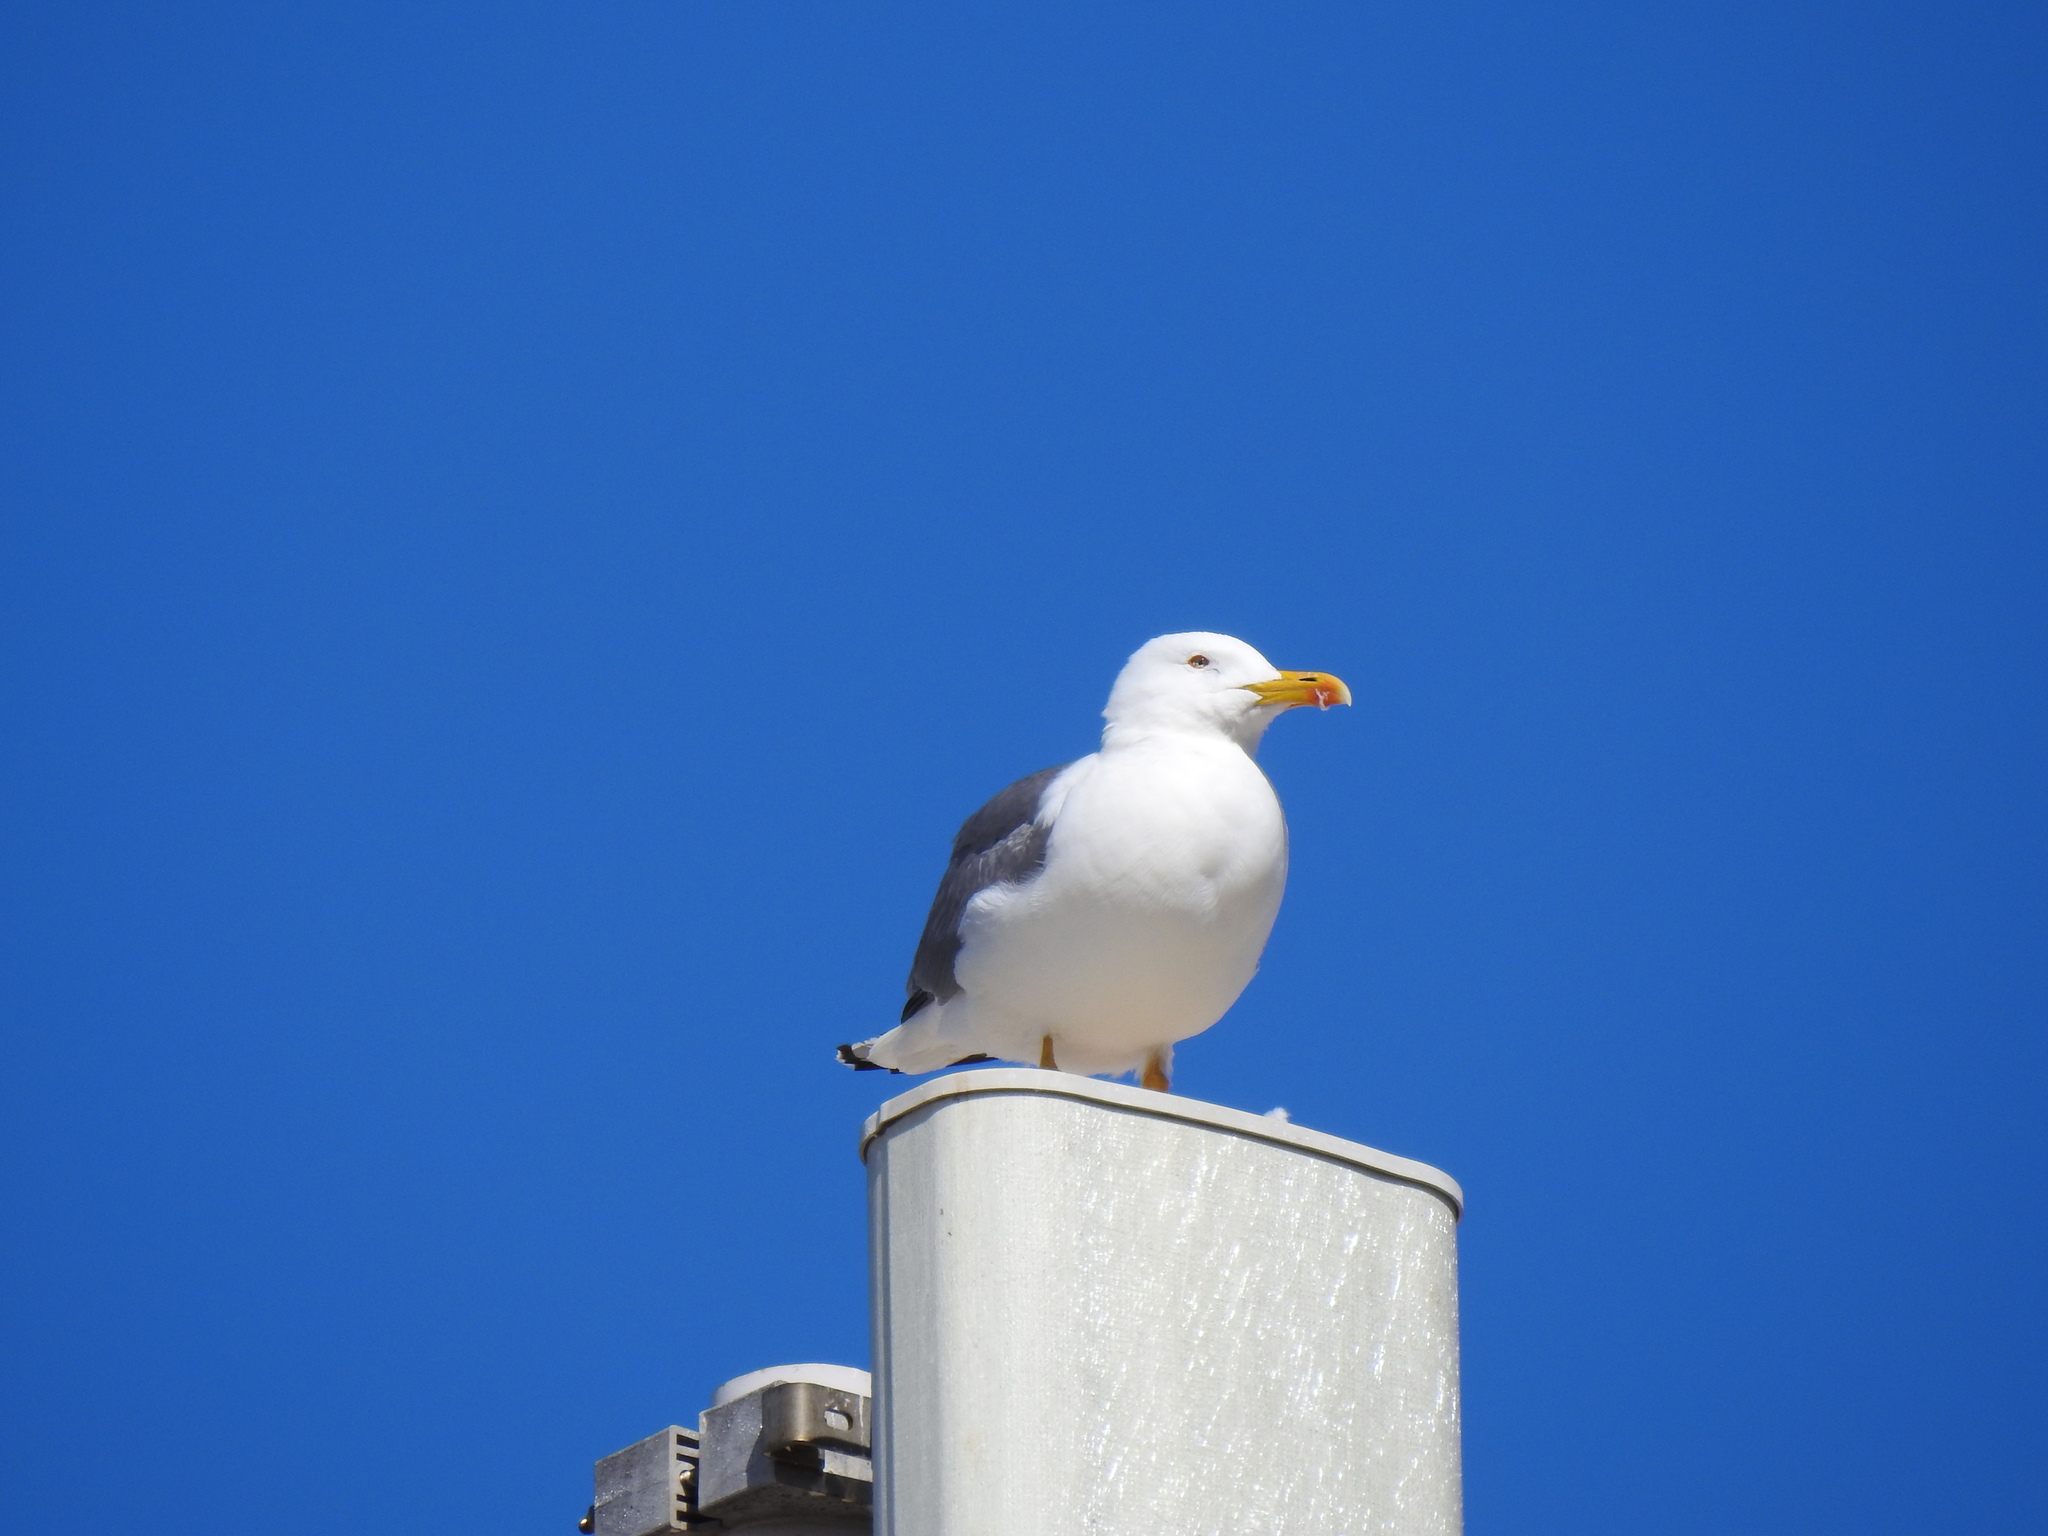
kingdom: Animalia
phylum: Chordata
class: Aves
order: Charadriiformes
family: Laridae
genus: Larus
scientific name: Larus michahellis
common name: Yellow-legged gull
